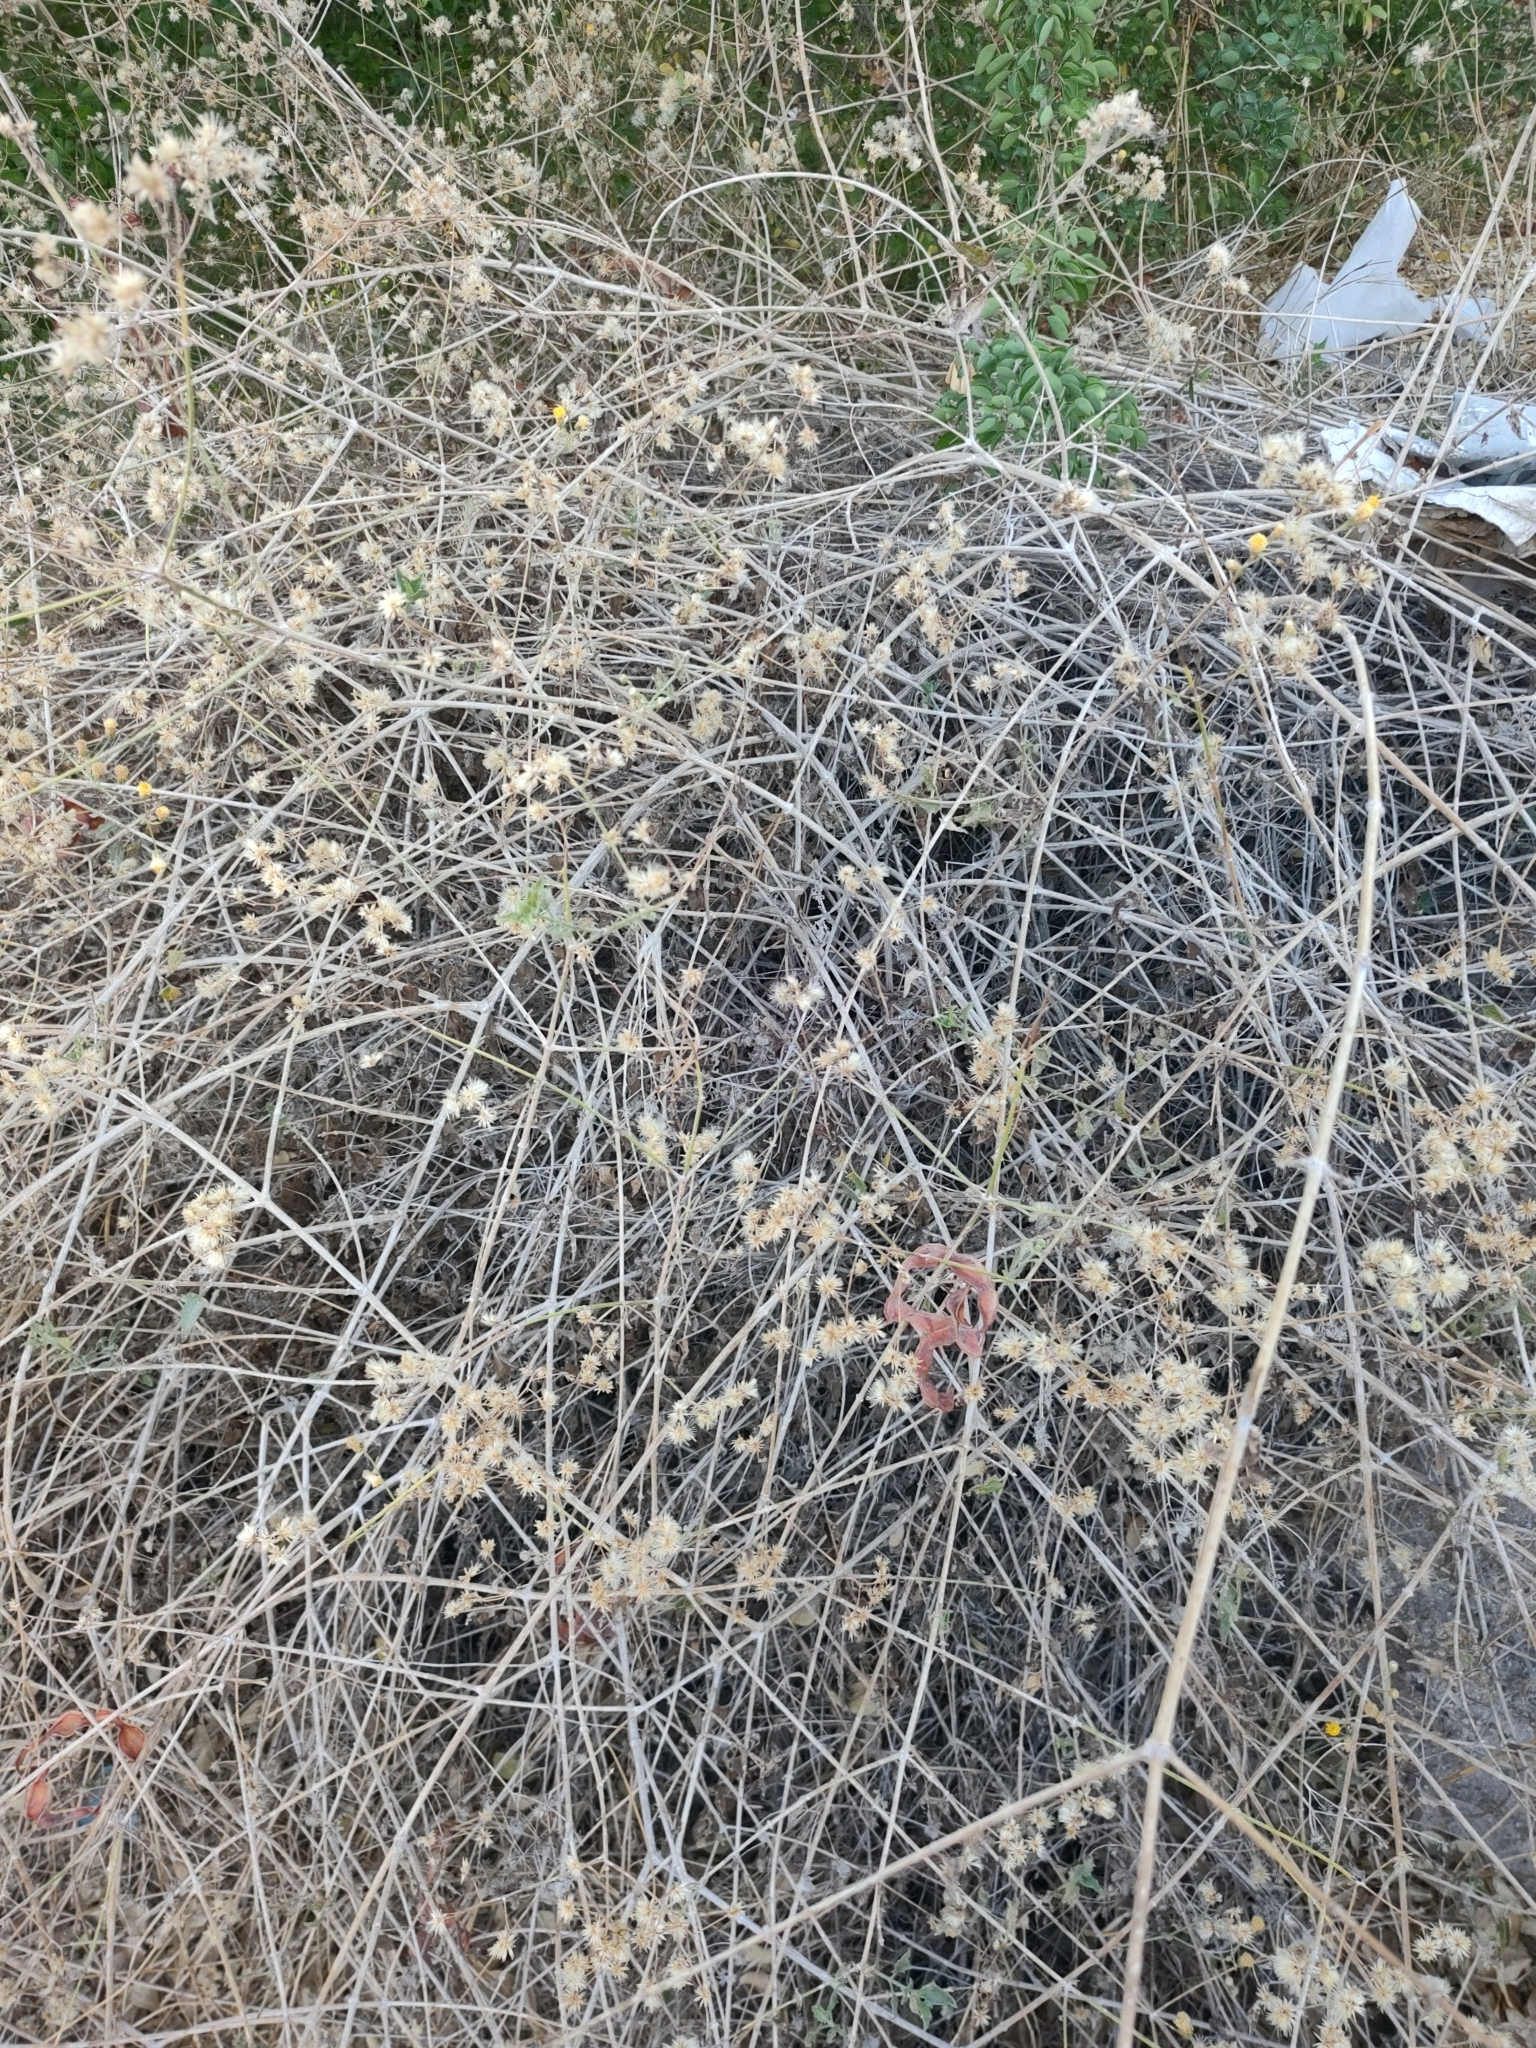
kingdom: Plantae
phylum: Tracheophyta
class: Magnoliopsida
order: Asterales
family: Asteraceae
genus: Bebbia
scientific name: Bebbia atriplicifolia
